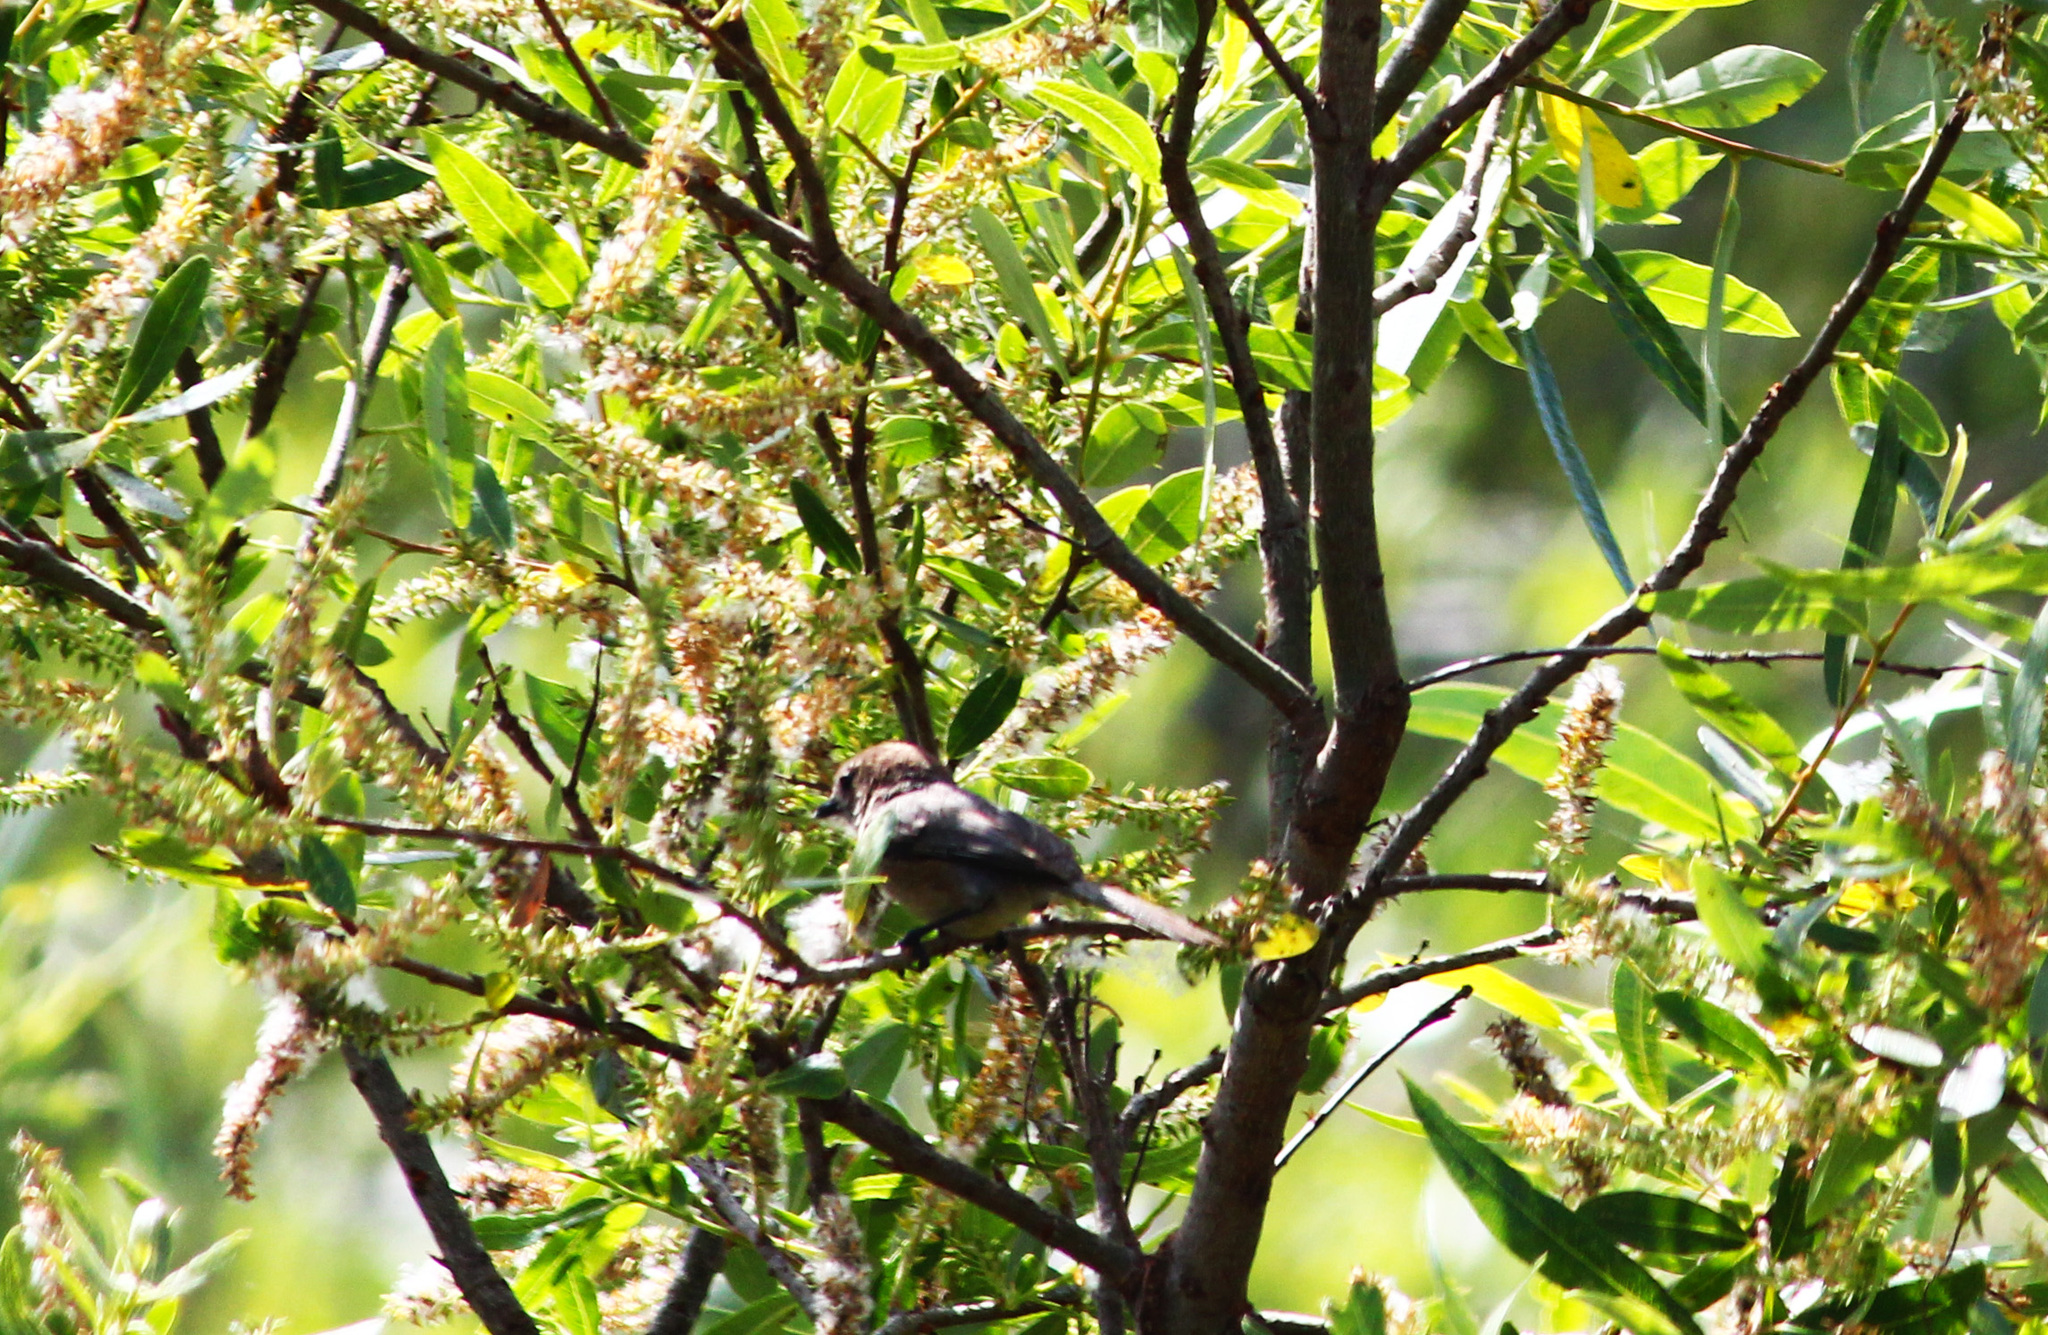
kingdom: Animalia
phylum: Chordata
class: Aves
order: Passeriformes
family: Aegithalidae
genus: Psaltriparus
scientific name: Psaltriparus minimus
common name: American bushtit
